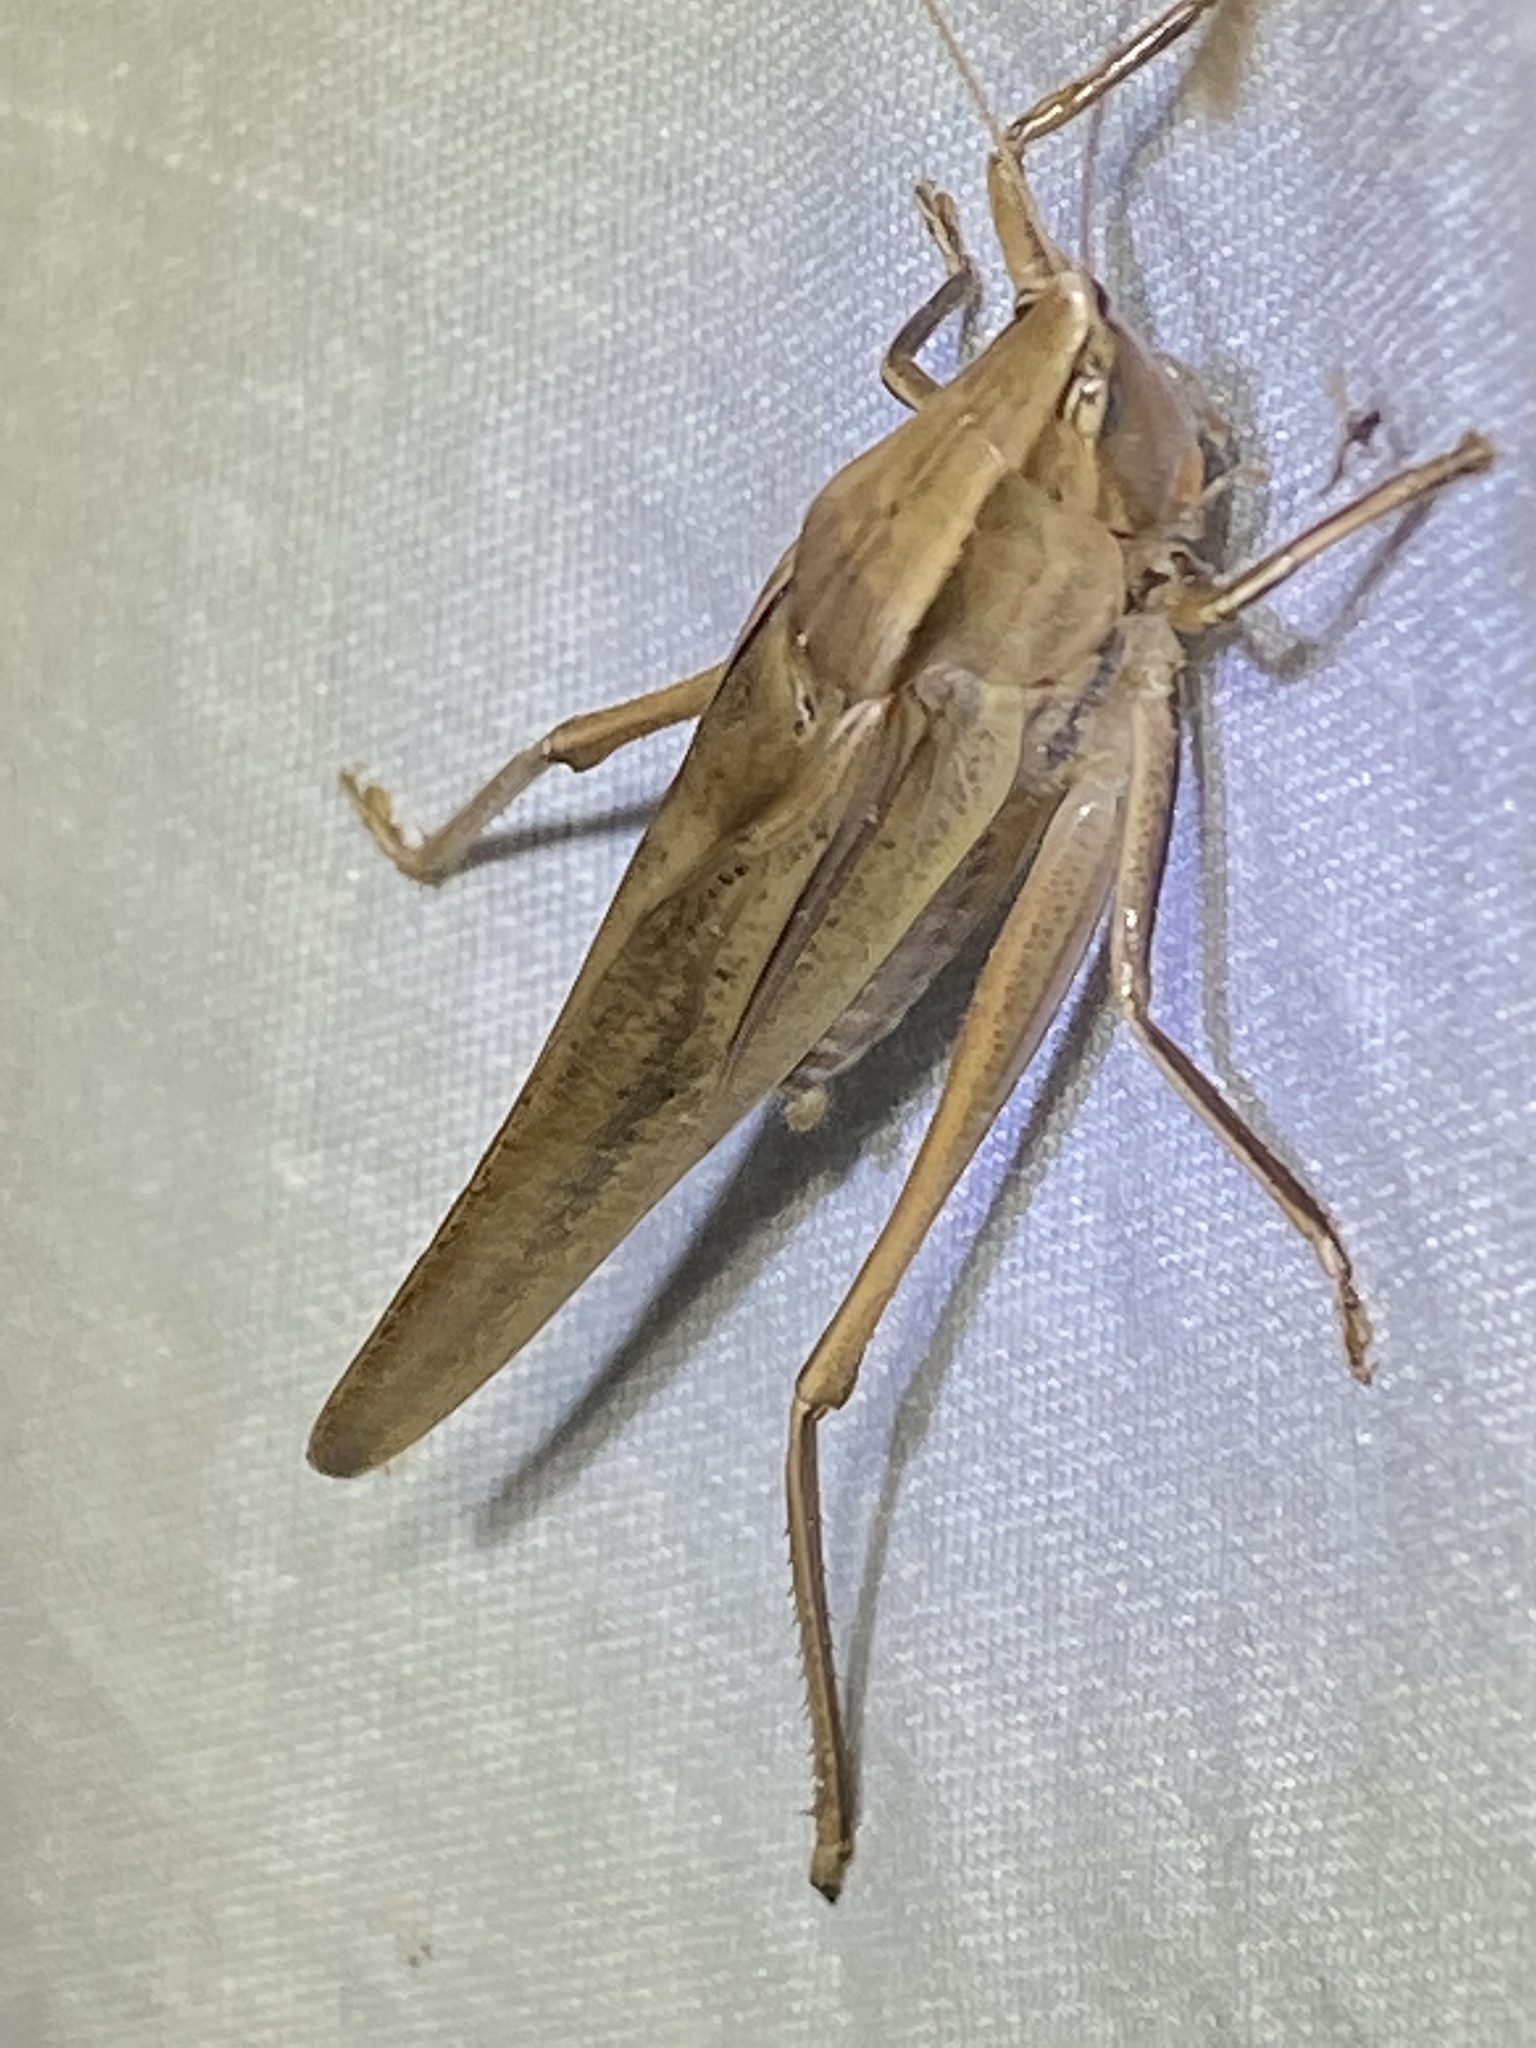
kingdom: Animalia
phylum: Arthropoda
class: Insecta
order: Orthoptera
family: Tettigoniidae
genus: Neoconocephalus
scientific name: Neoconocephalus triops
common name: Broad-tipped conehead
